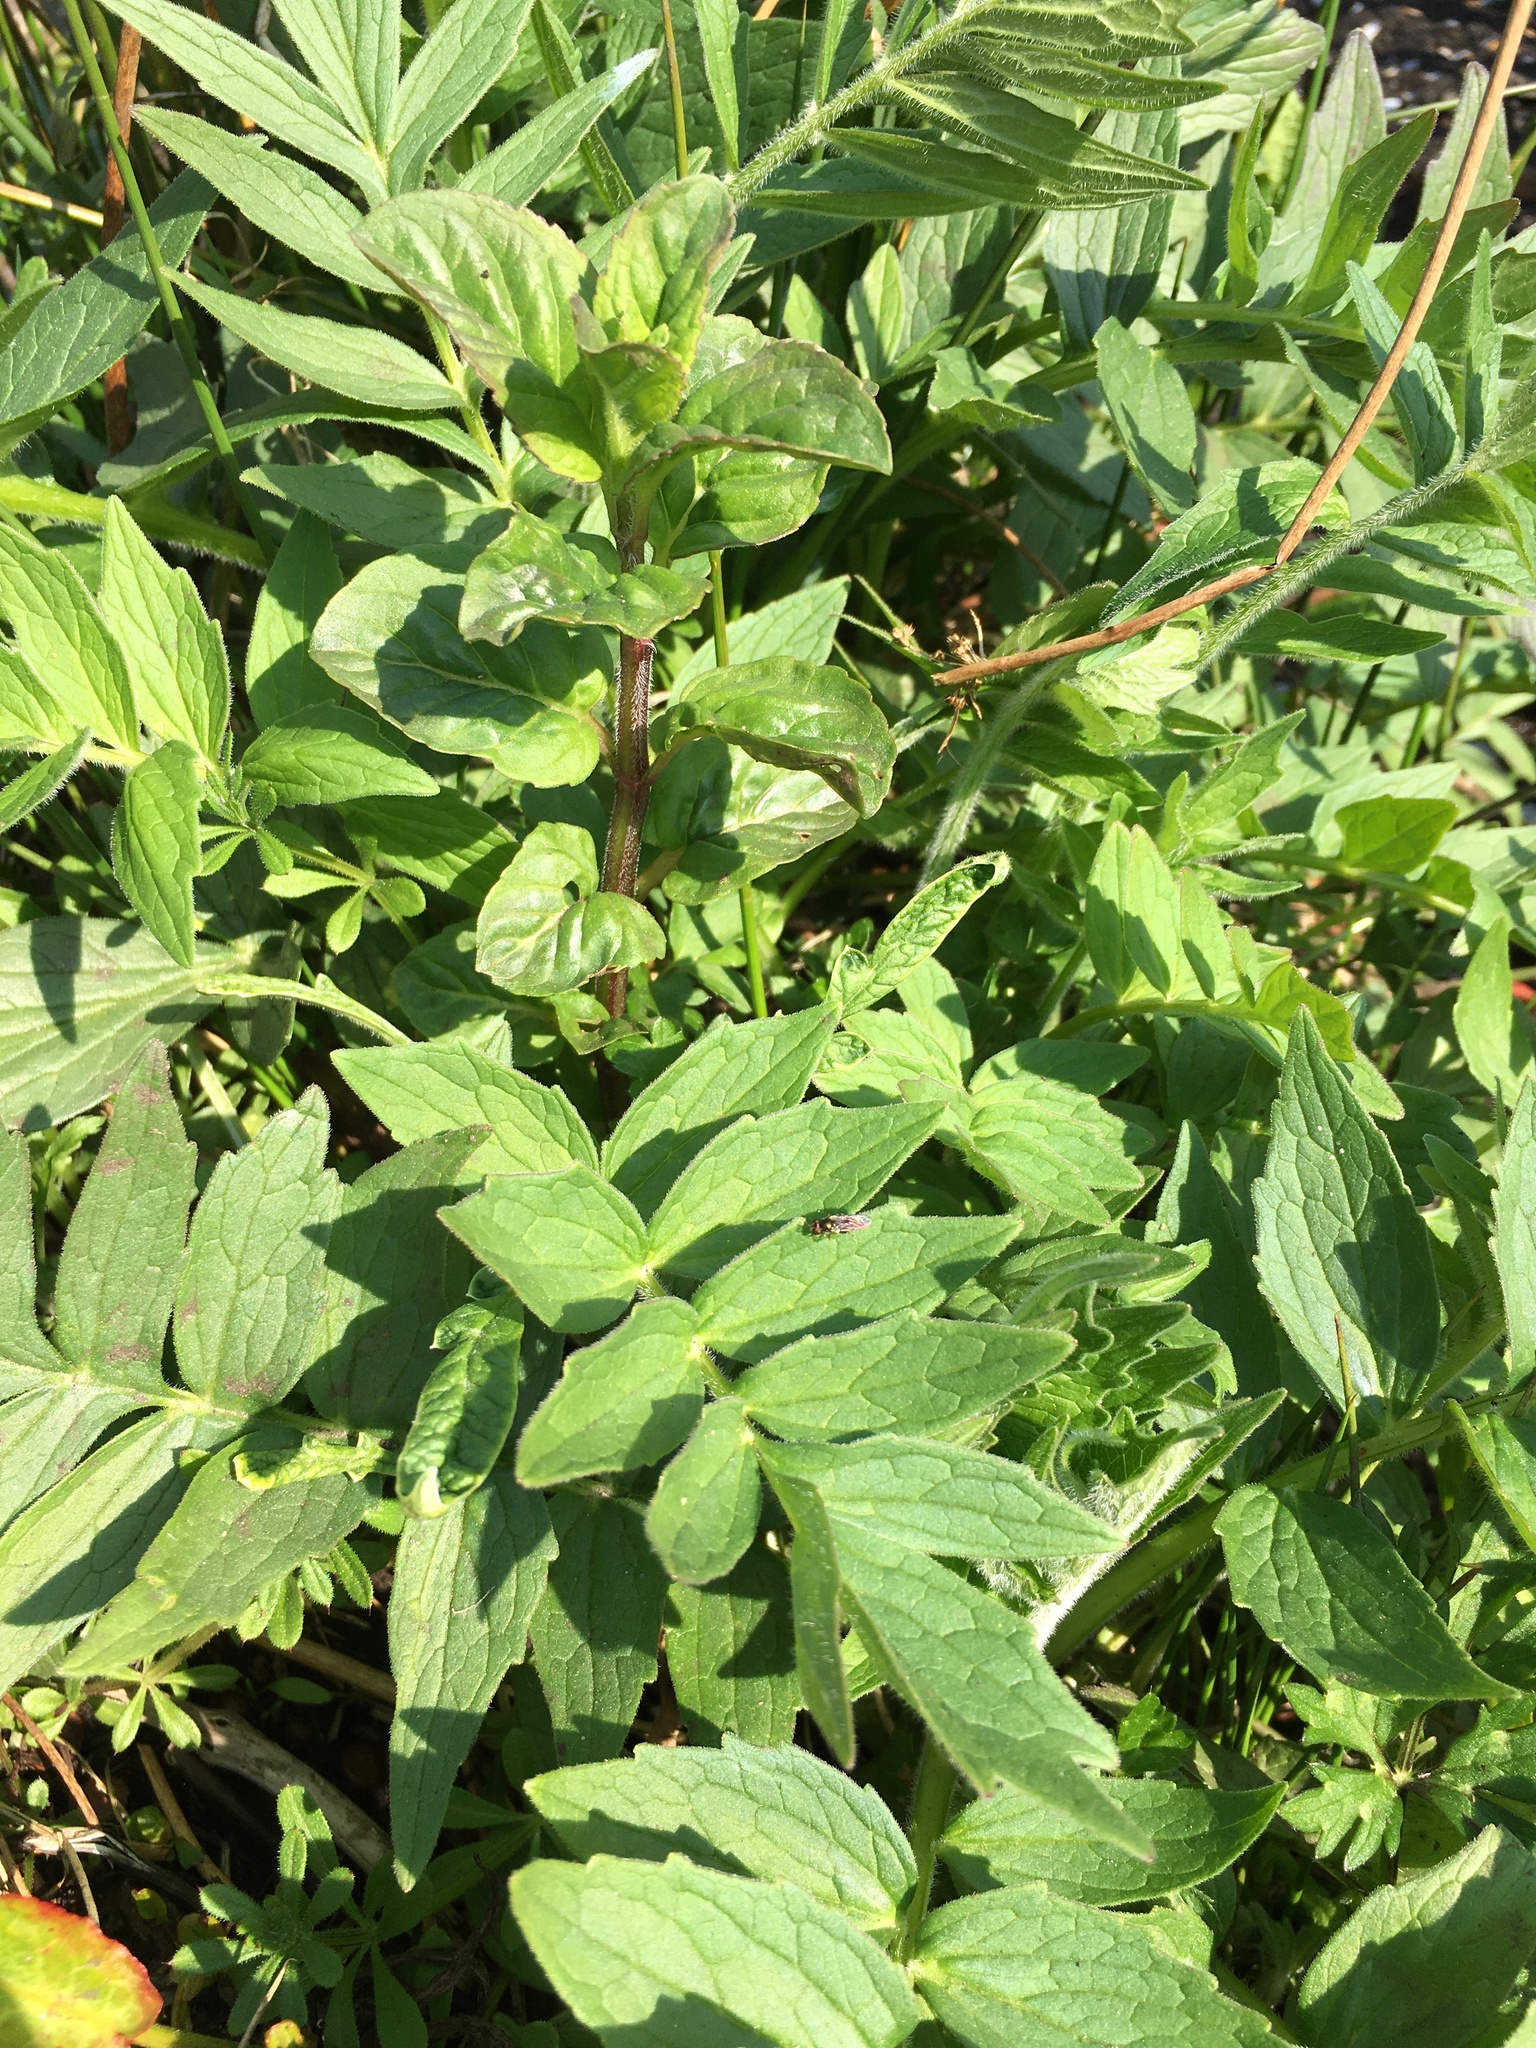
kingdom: Plantae
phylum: Tracheophyta
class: Magnoliopsida
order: Dipsacales
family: Caprifoliaceae
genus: Valeriana
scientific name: Valeriana officinalis
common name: Common valerian
